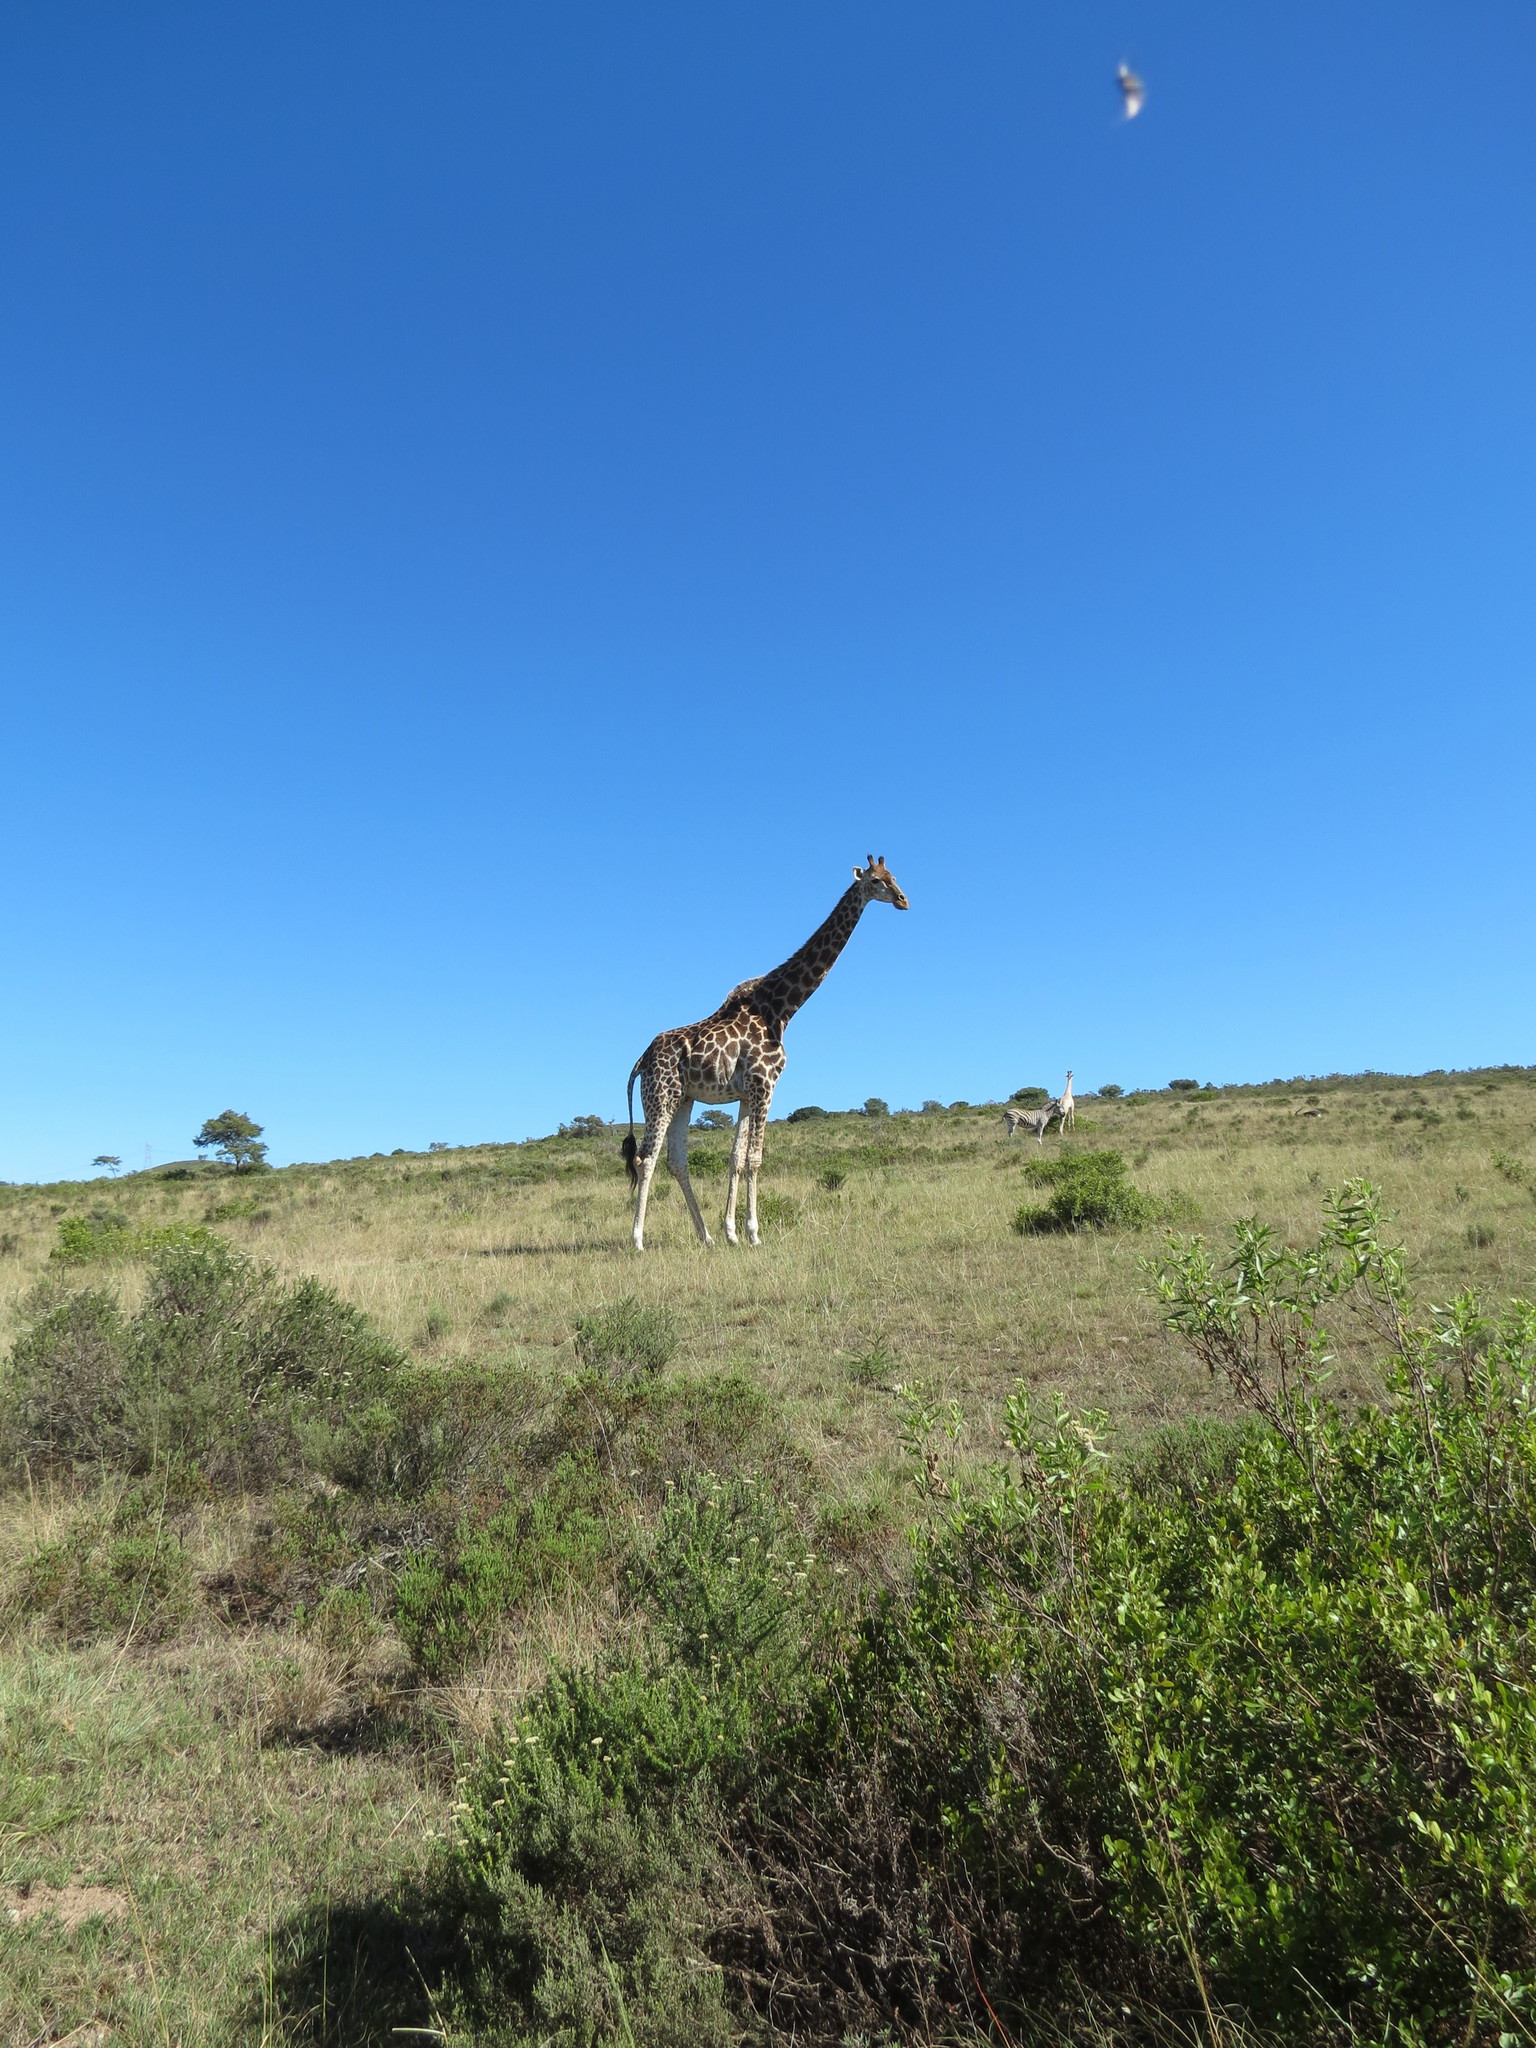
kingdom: Animalia
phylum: Chordata
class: Mammalia
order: Artiodactyla
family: Giraffidae
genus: Giraffa
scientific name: Giraffa giraffa
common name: Southern giraffe
